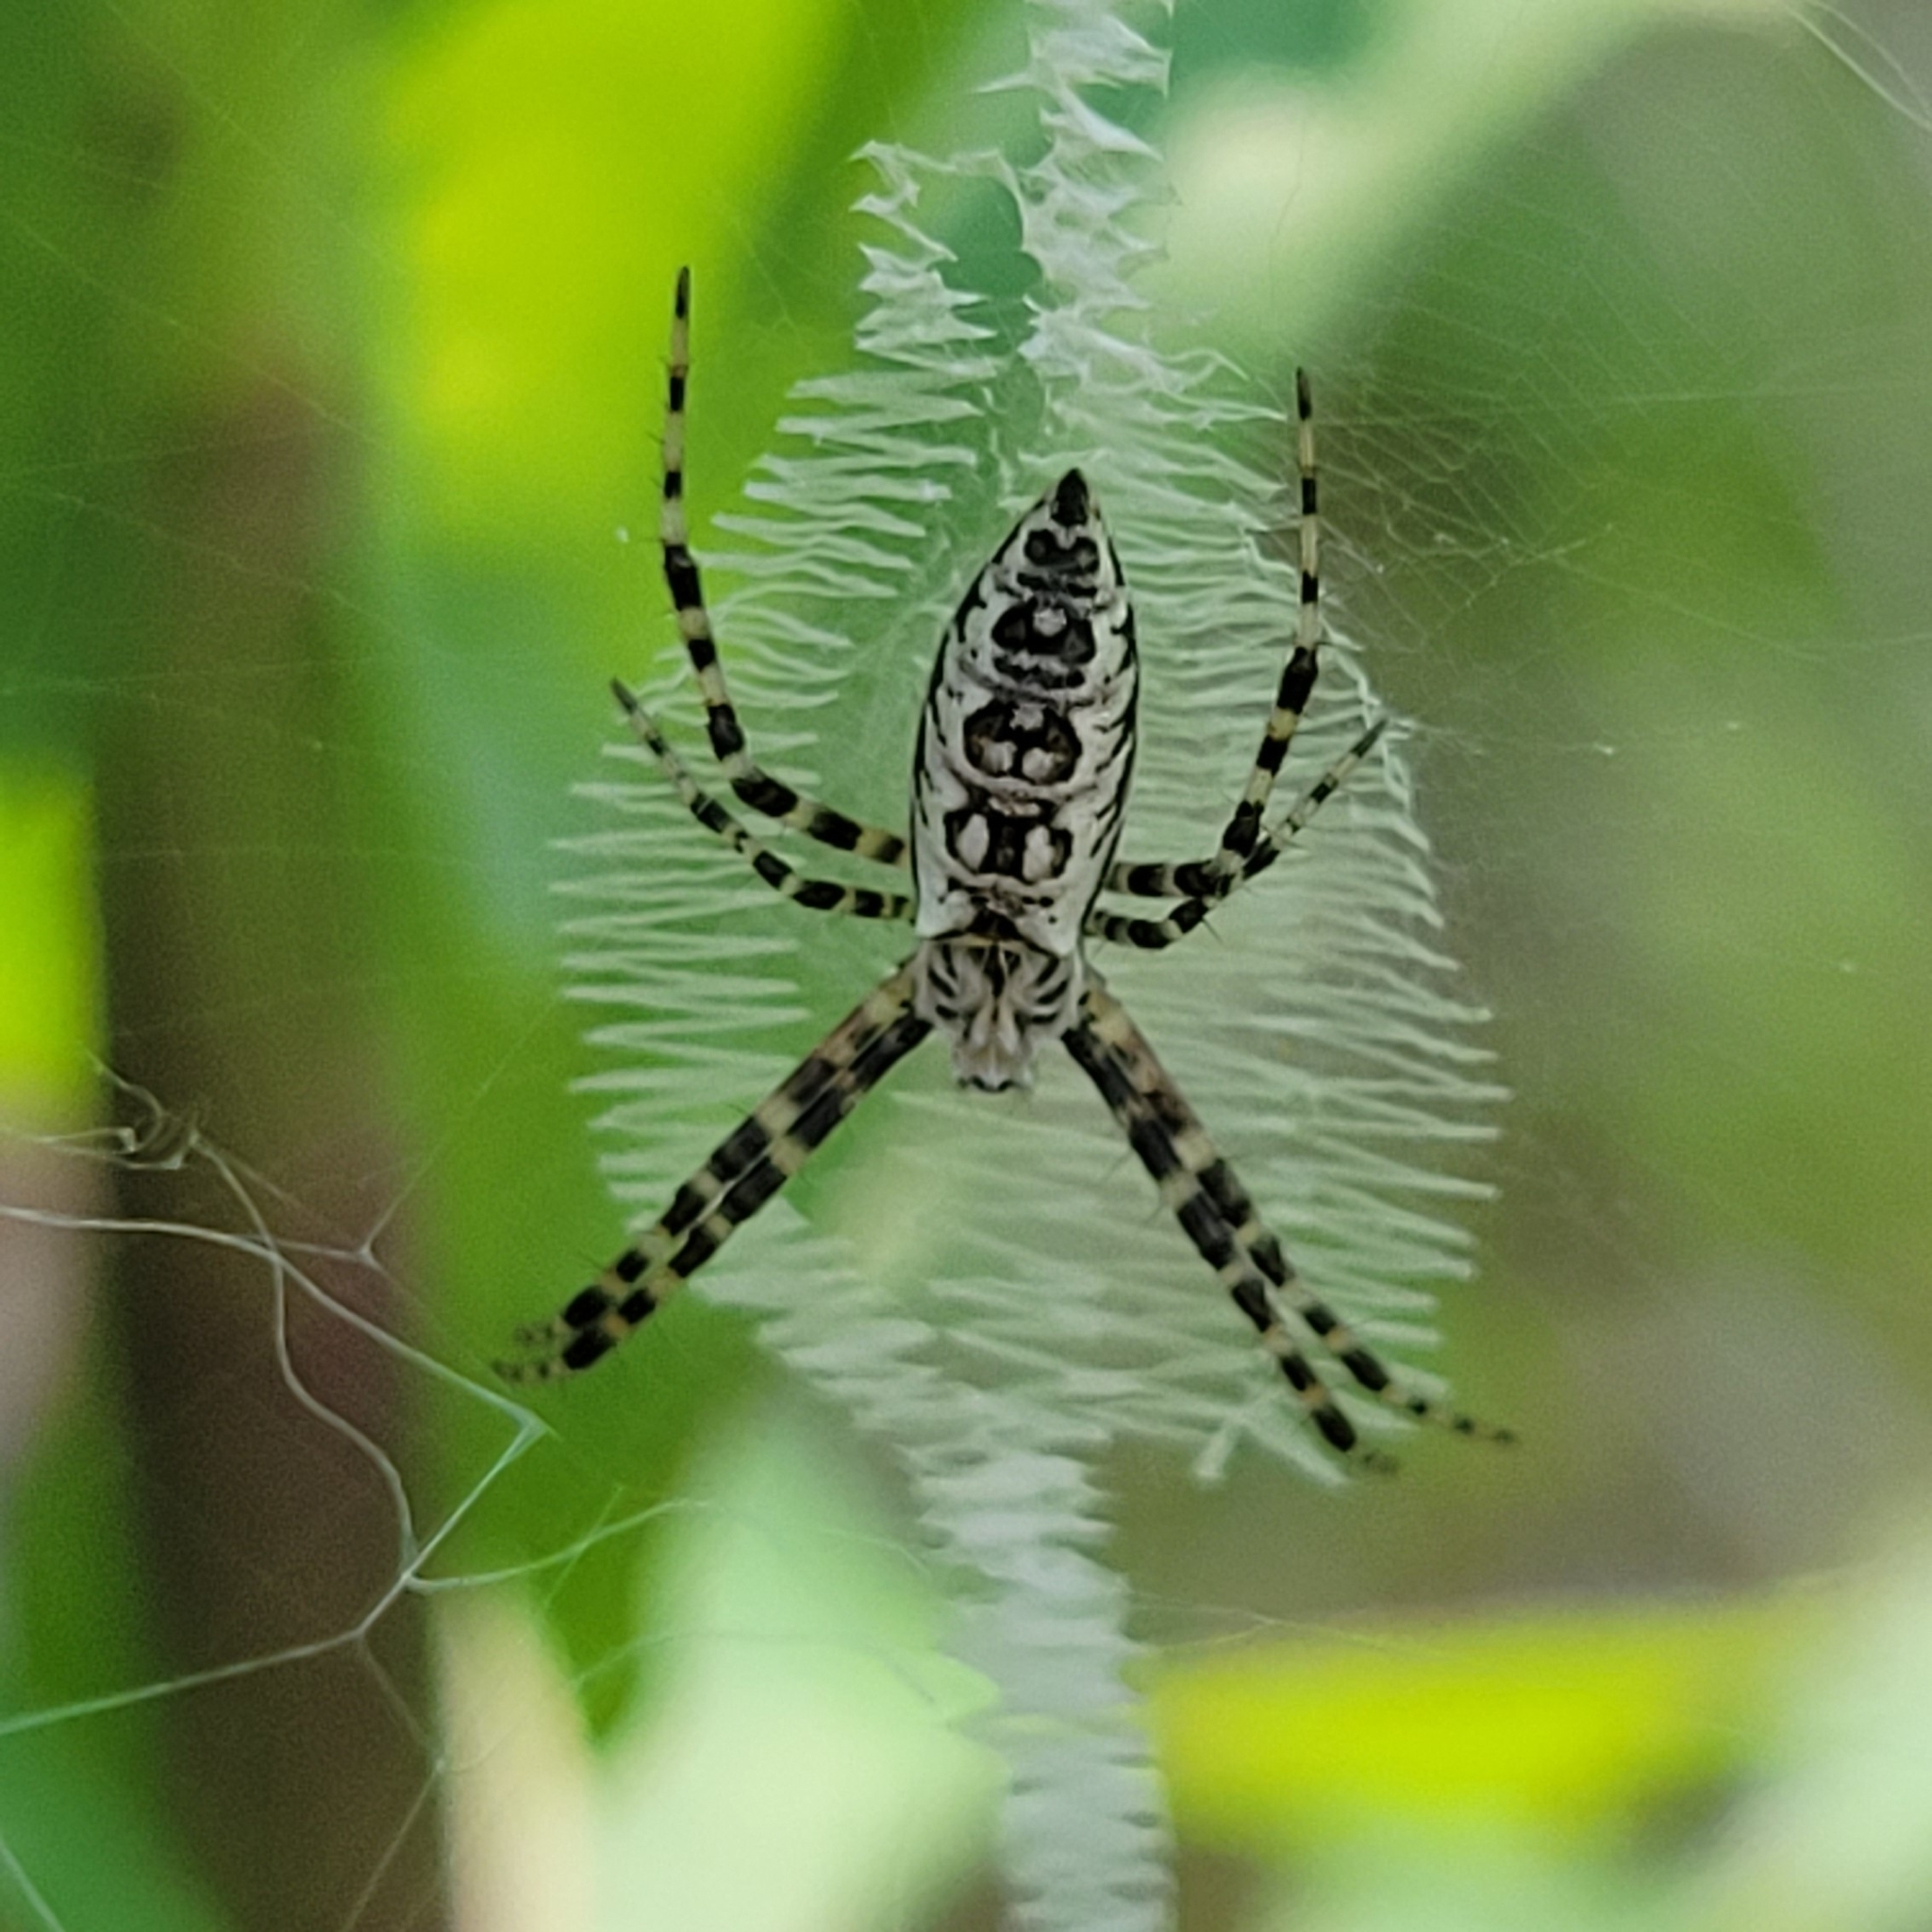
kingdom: Animalia
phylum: Arthropoda
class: Arachnida
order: Araneae
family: Araneidae
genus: Argiope
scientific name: Argiope aurantia
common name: Orb weavers
